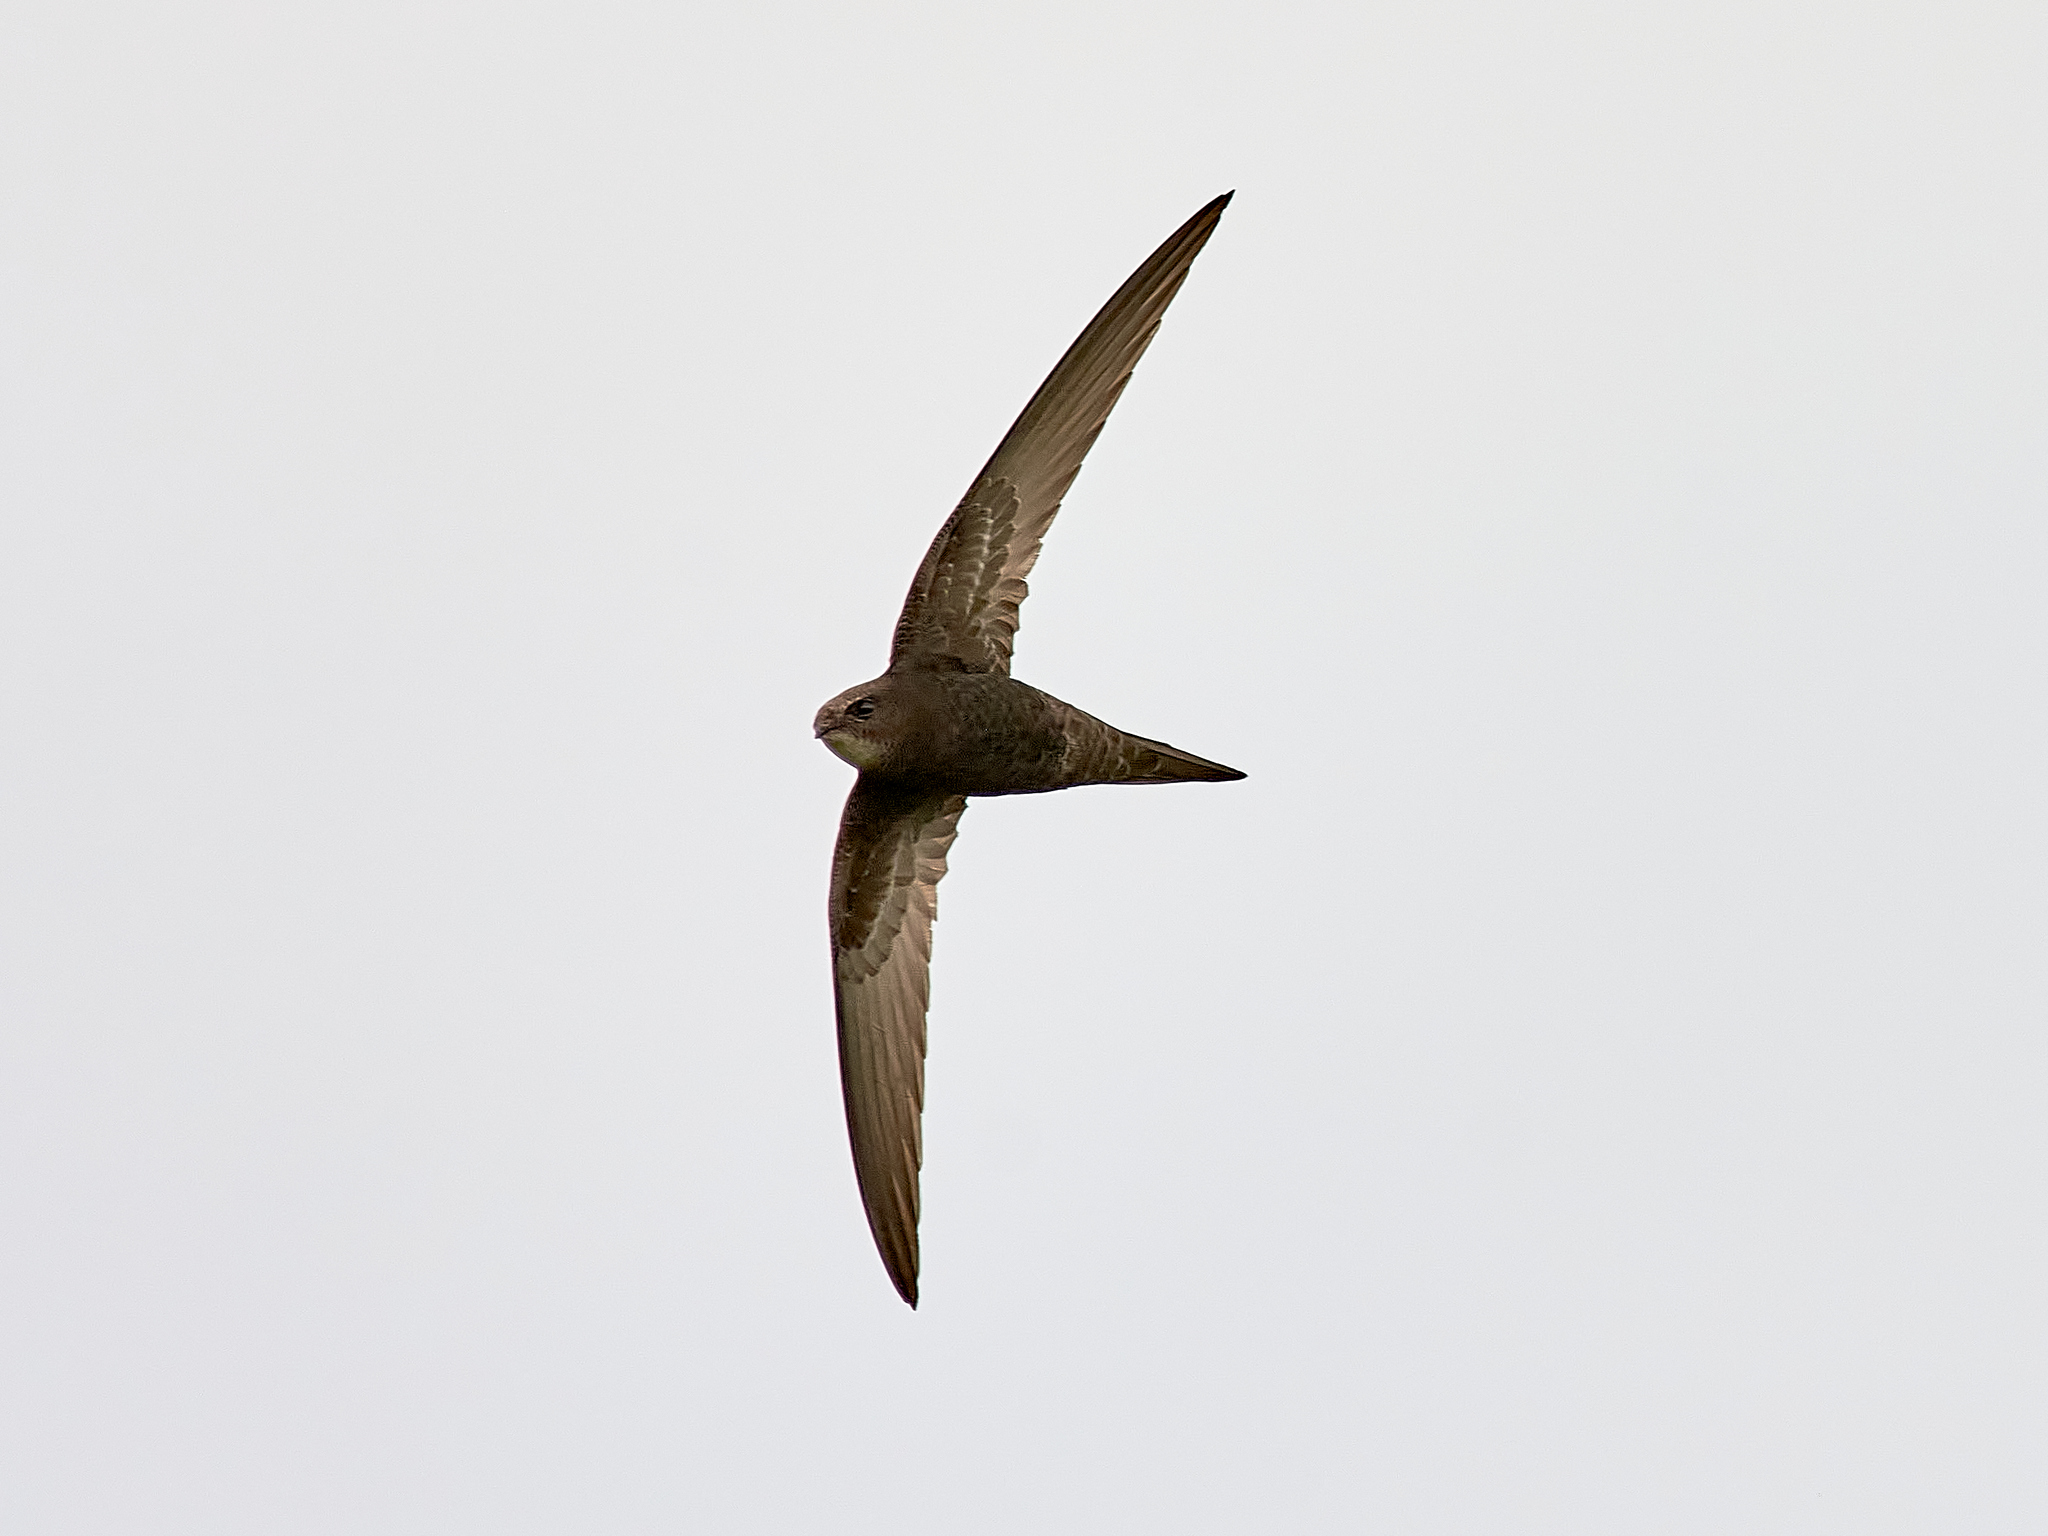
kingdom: Animalia
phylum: Chordata
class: Aves
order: Apodiformes
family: Apodidae
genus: Apus
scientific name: Apus apus
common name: Common swift
